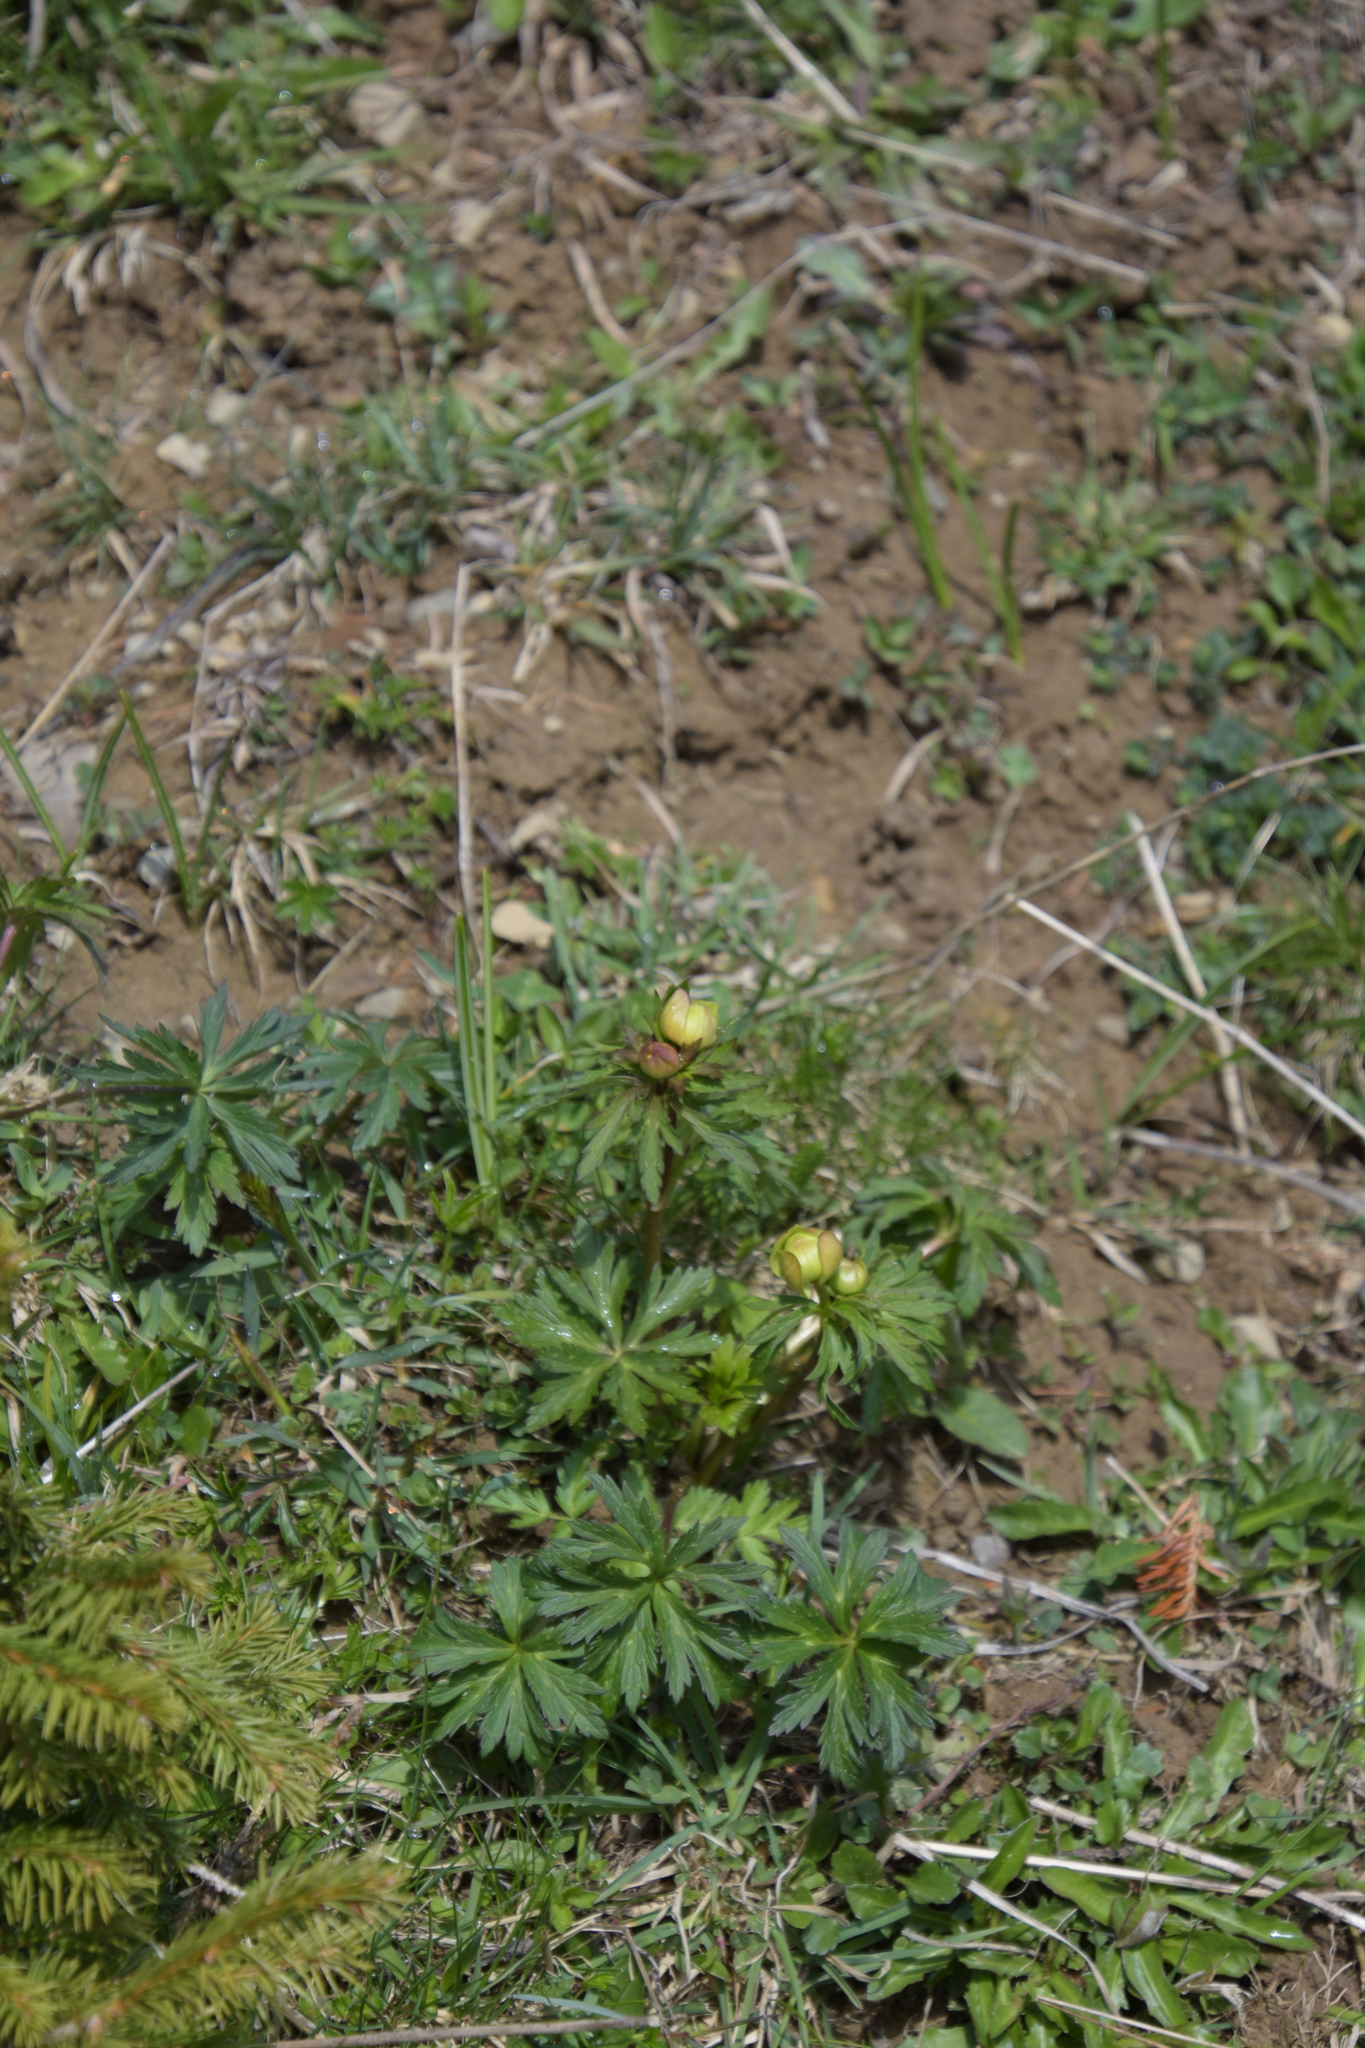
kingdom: Plantae
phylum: Tracheophyta
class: Magnoliopsida
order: Ranunculales
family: Ranunculaceae
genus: Trollius
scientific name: Trollius europaeus
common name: European globeflower
